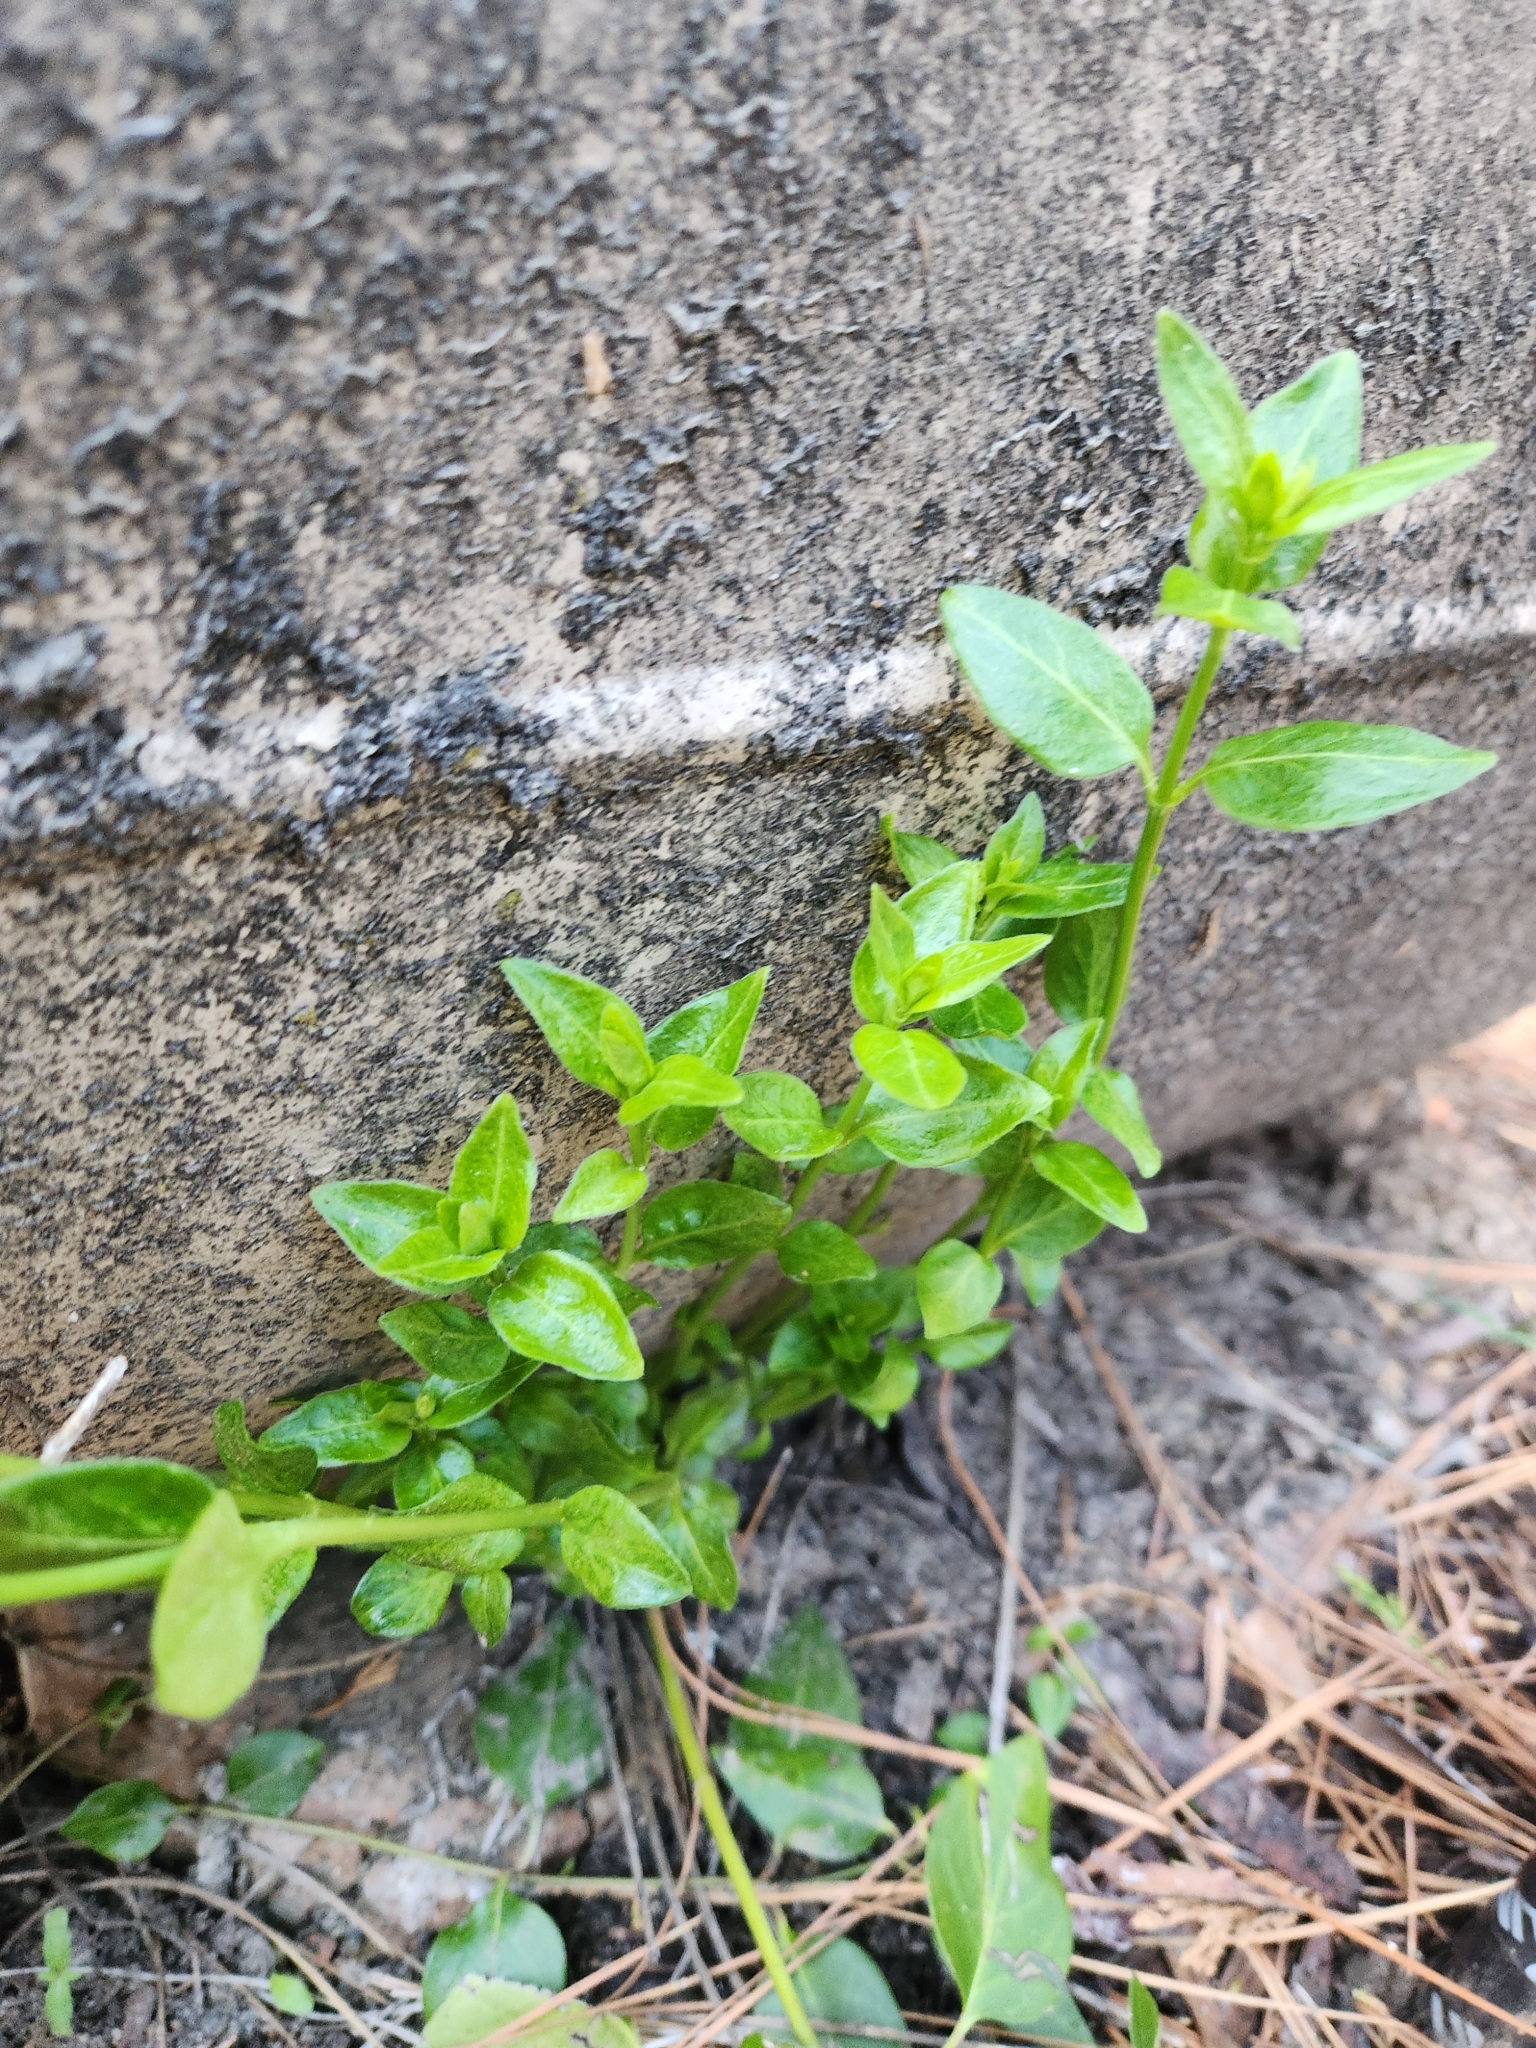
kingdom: Plantae
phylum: Tracheophyta
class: Magnoliopsida
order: Gentianales
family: Apocynaceae
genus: Vinca
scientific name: Vinca major
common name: Greater periwinkle
